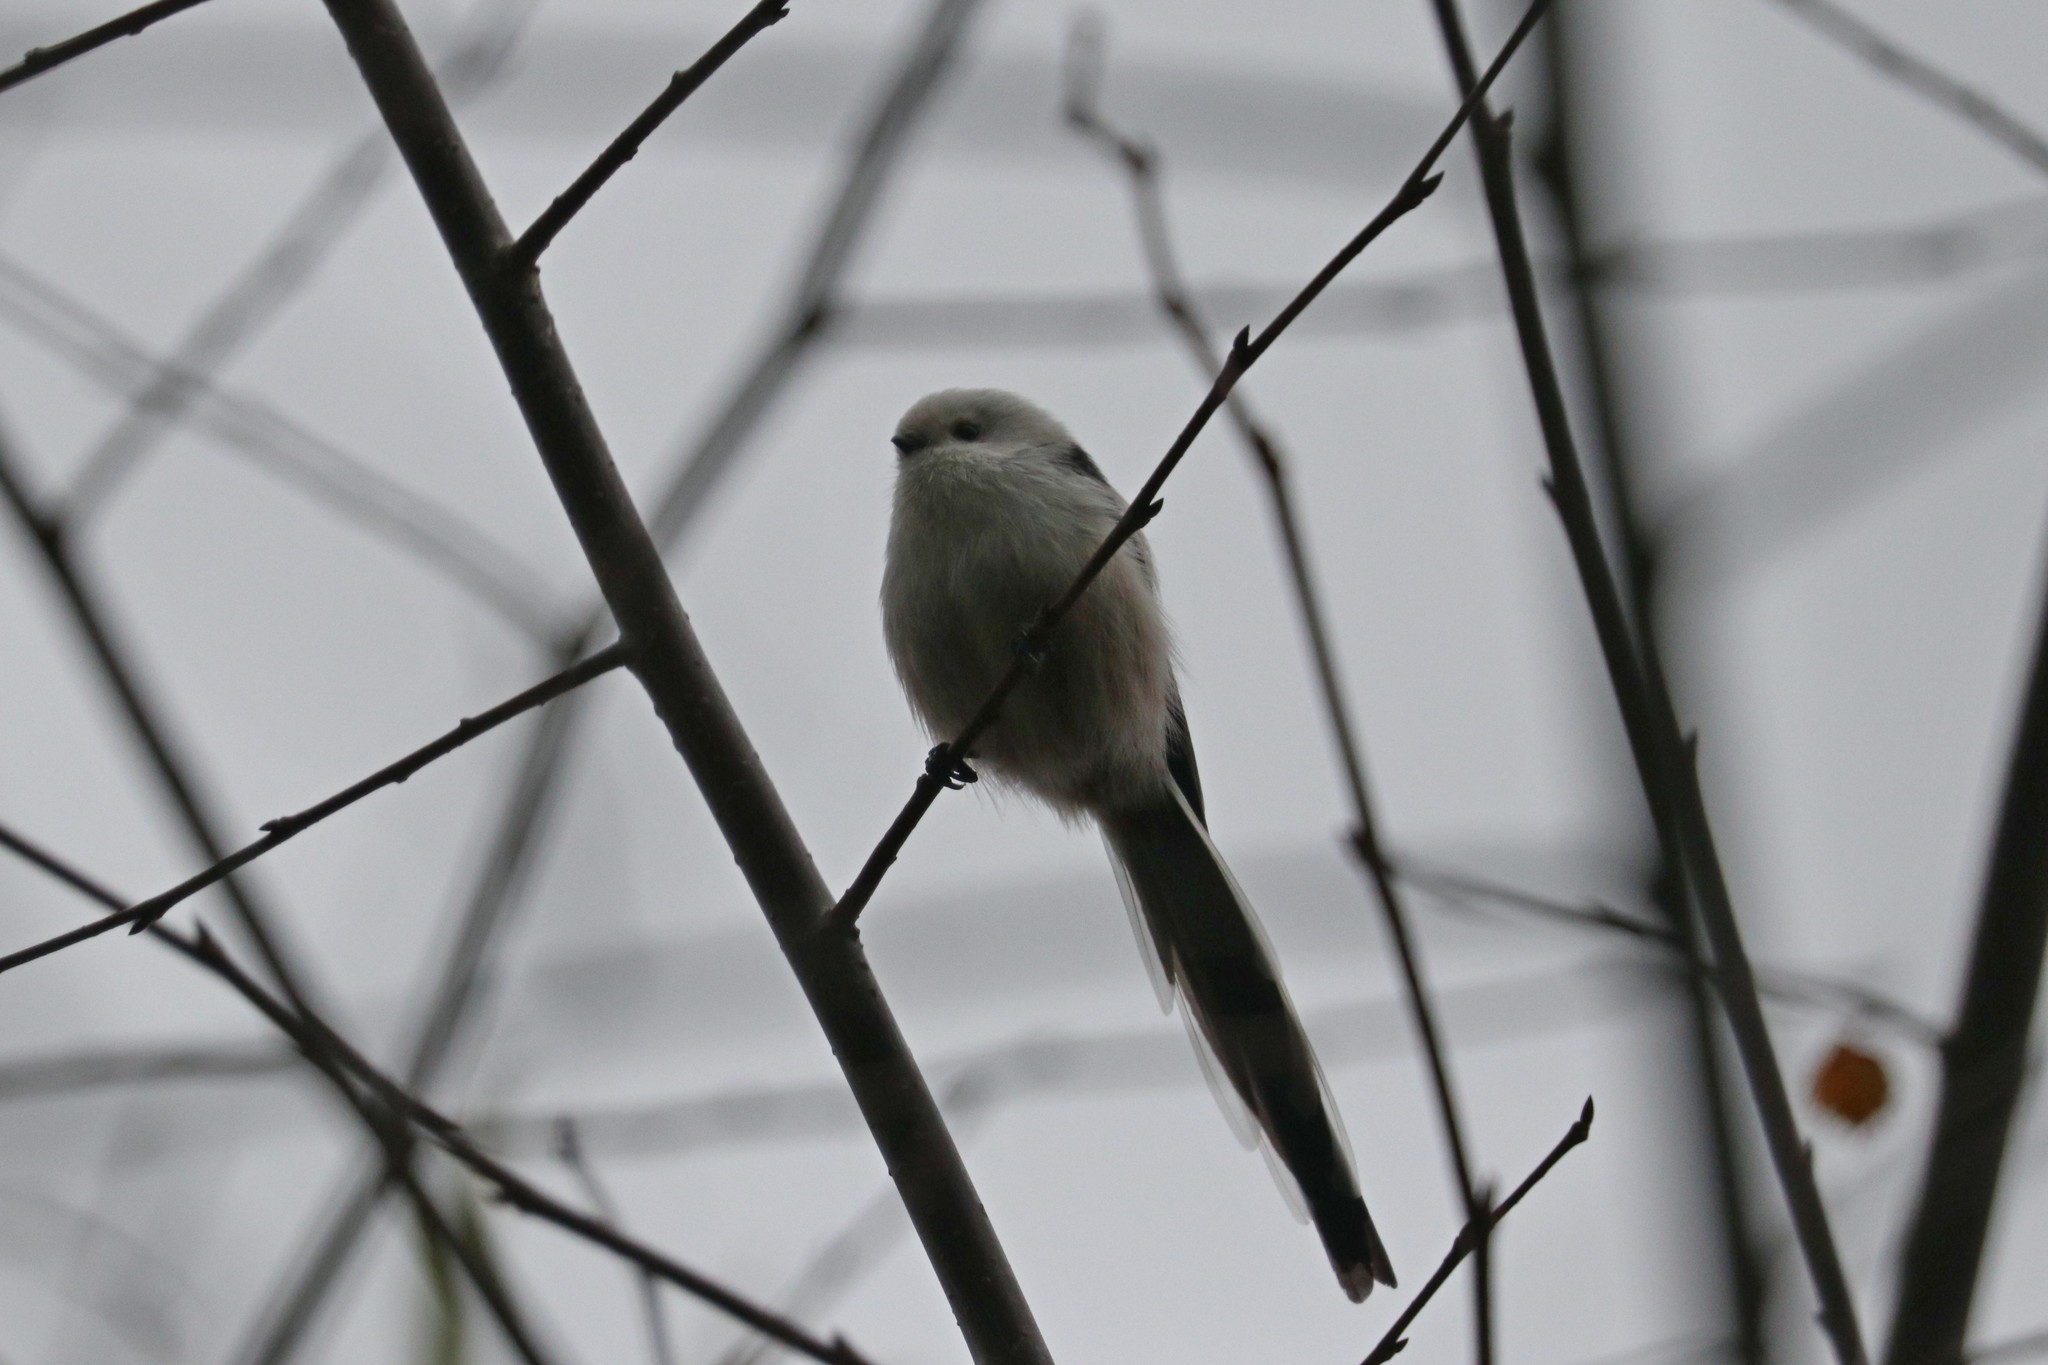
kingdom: Animalia
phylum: Chordata
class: Aves
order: Passeriformes
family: Aegithalidae
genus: Aegithalos
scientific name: Aegithalos caudatus
